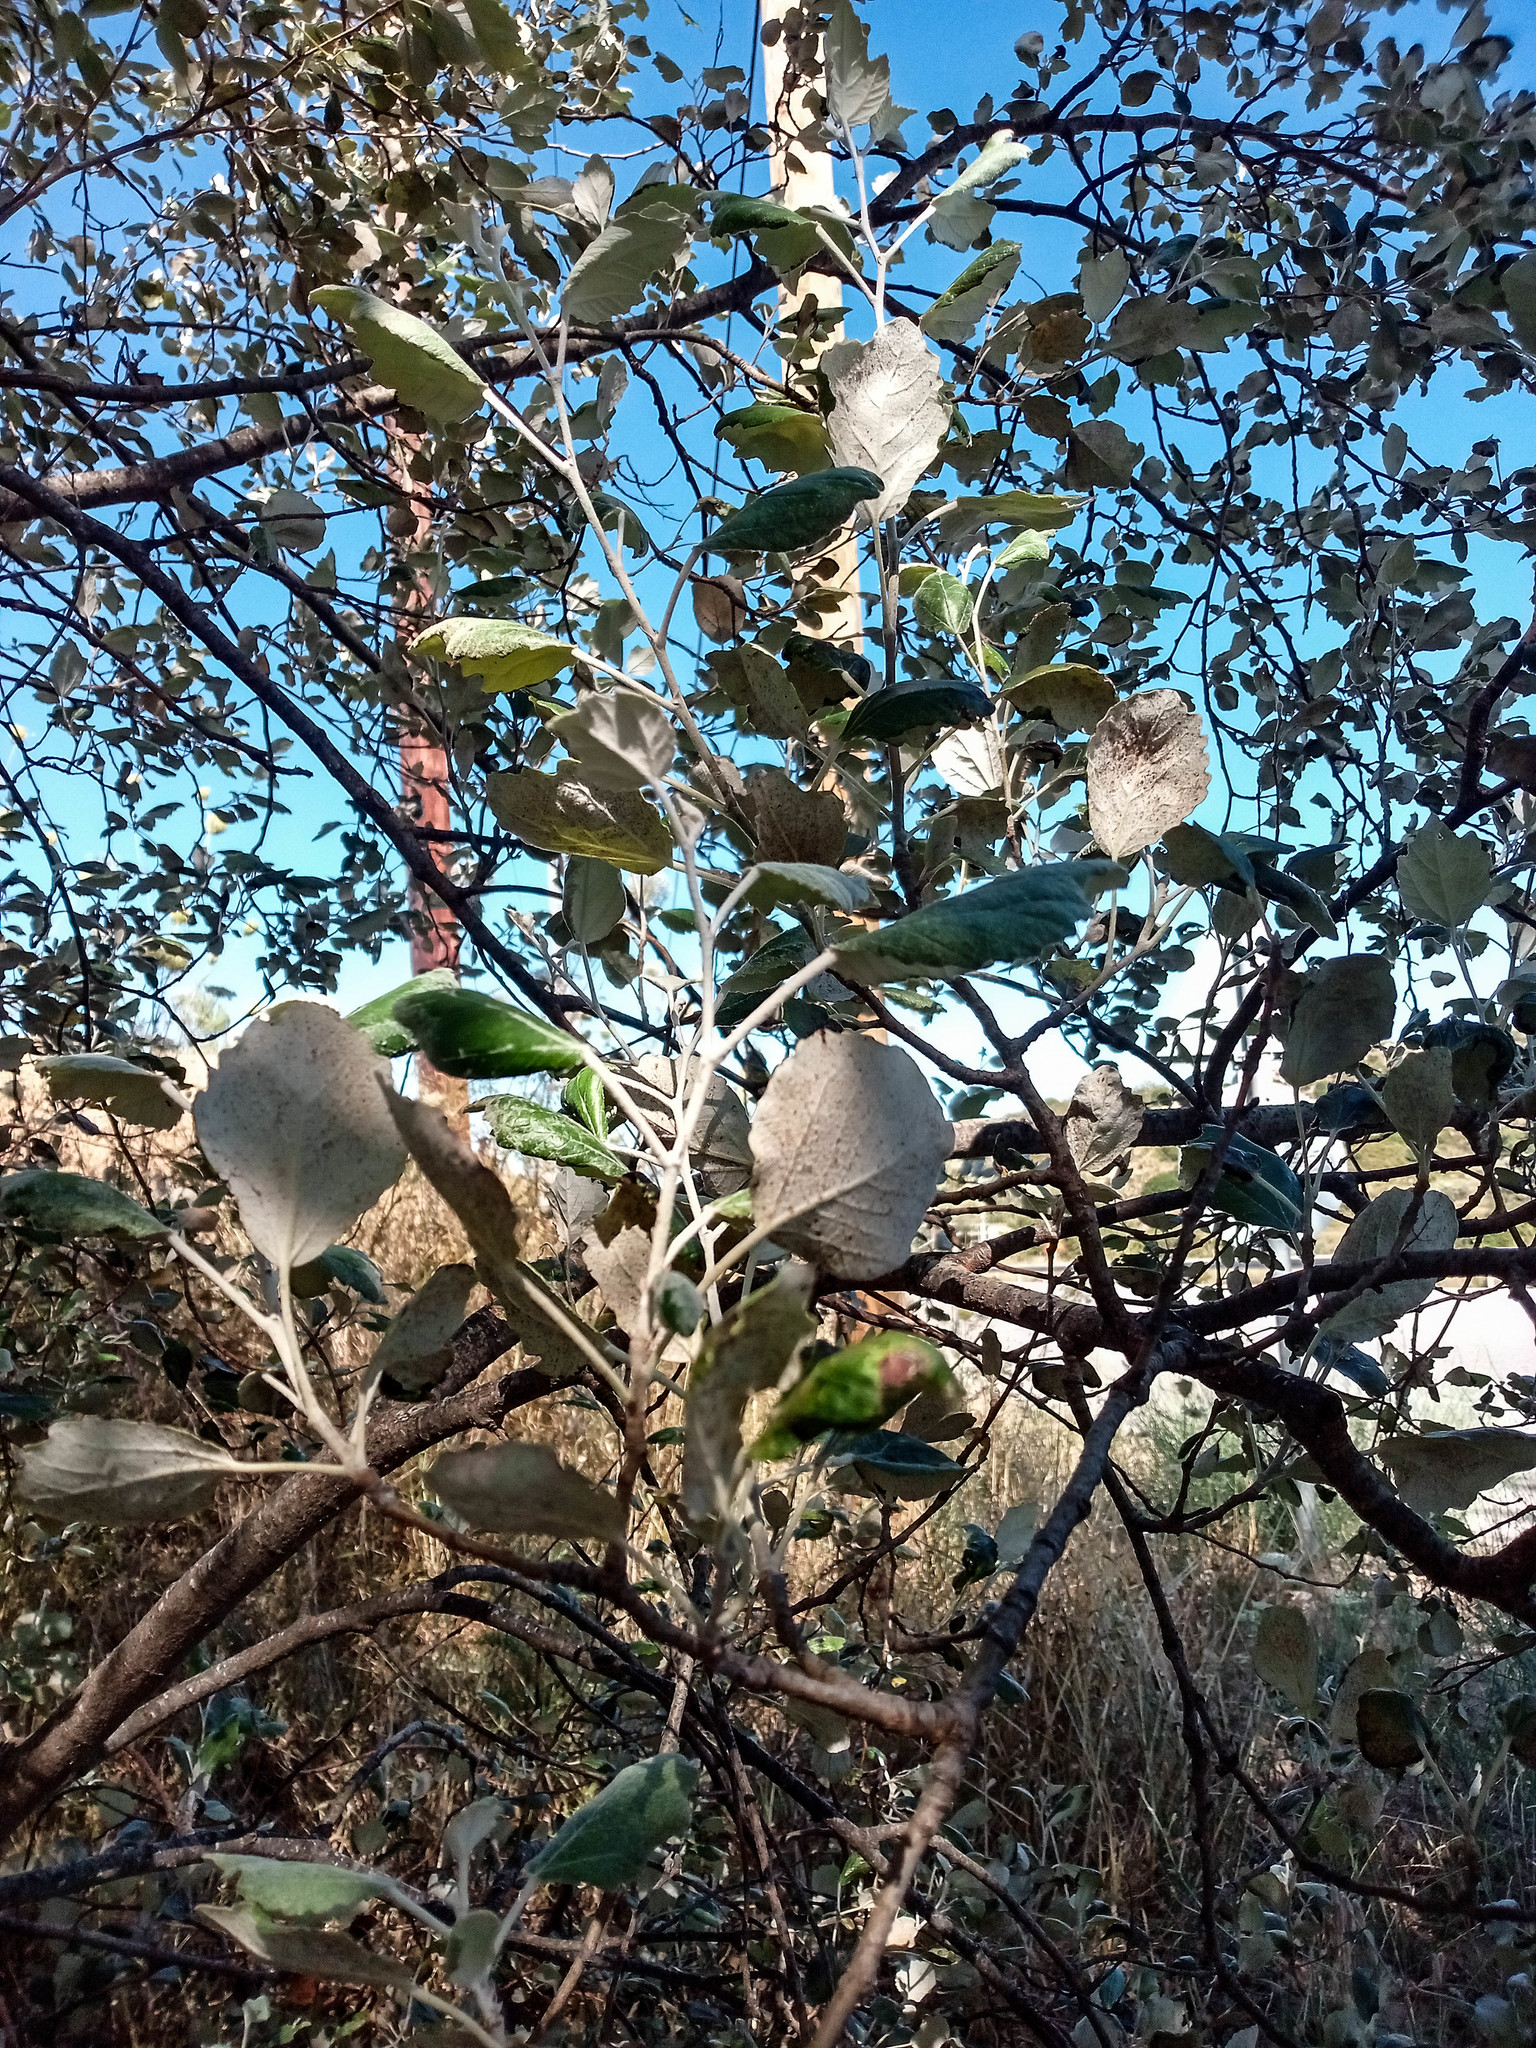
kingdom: Plantae
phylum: Tracheophyta
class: Magnoliopsida
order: Malpighiales
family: Salicaceae
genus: Populus
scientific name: Populus alba
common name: White poplar
